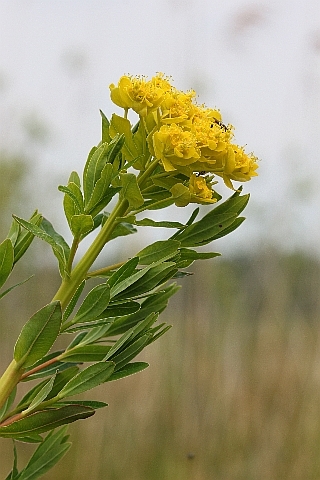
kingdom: Plantae
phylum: Tracheophyta
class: Magnoliopsida
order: Malpighiales
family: Euphorbiaceae
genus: Euphorbia
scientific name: Euphorbia palustris
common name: Marsh spurge
